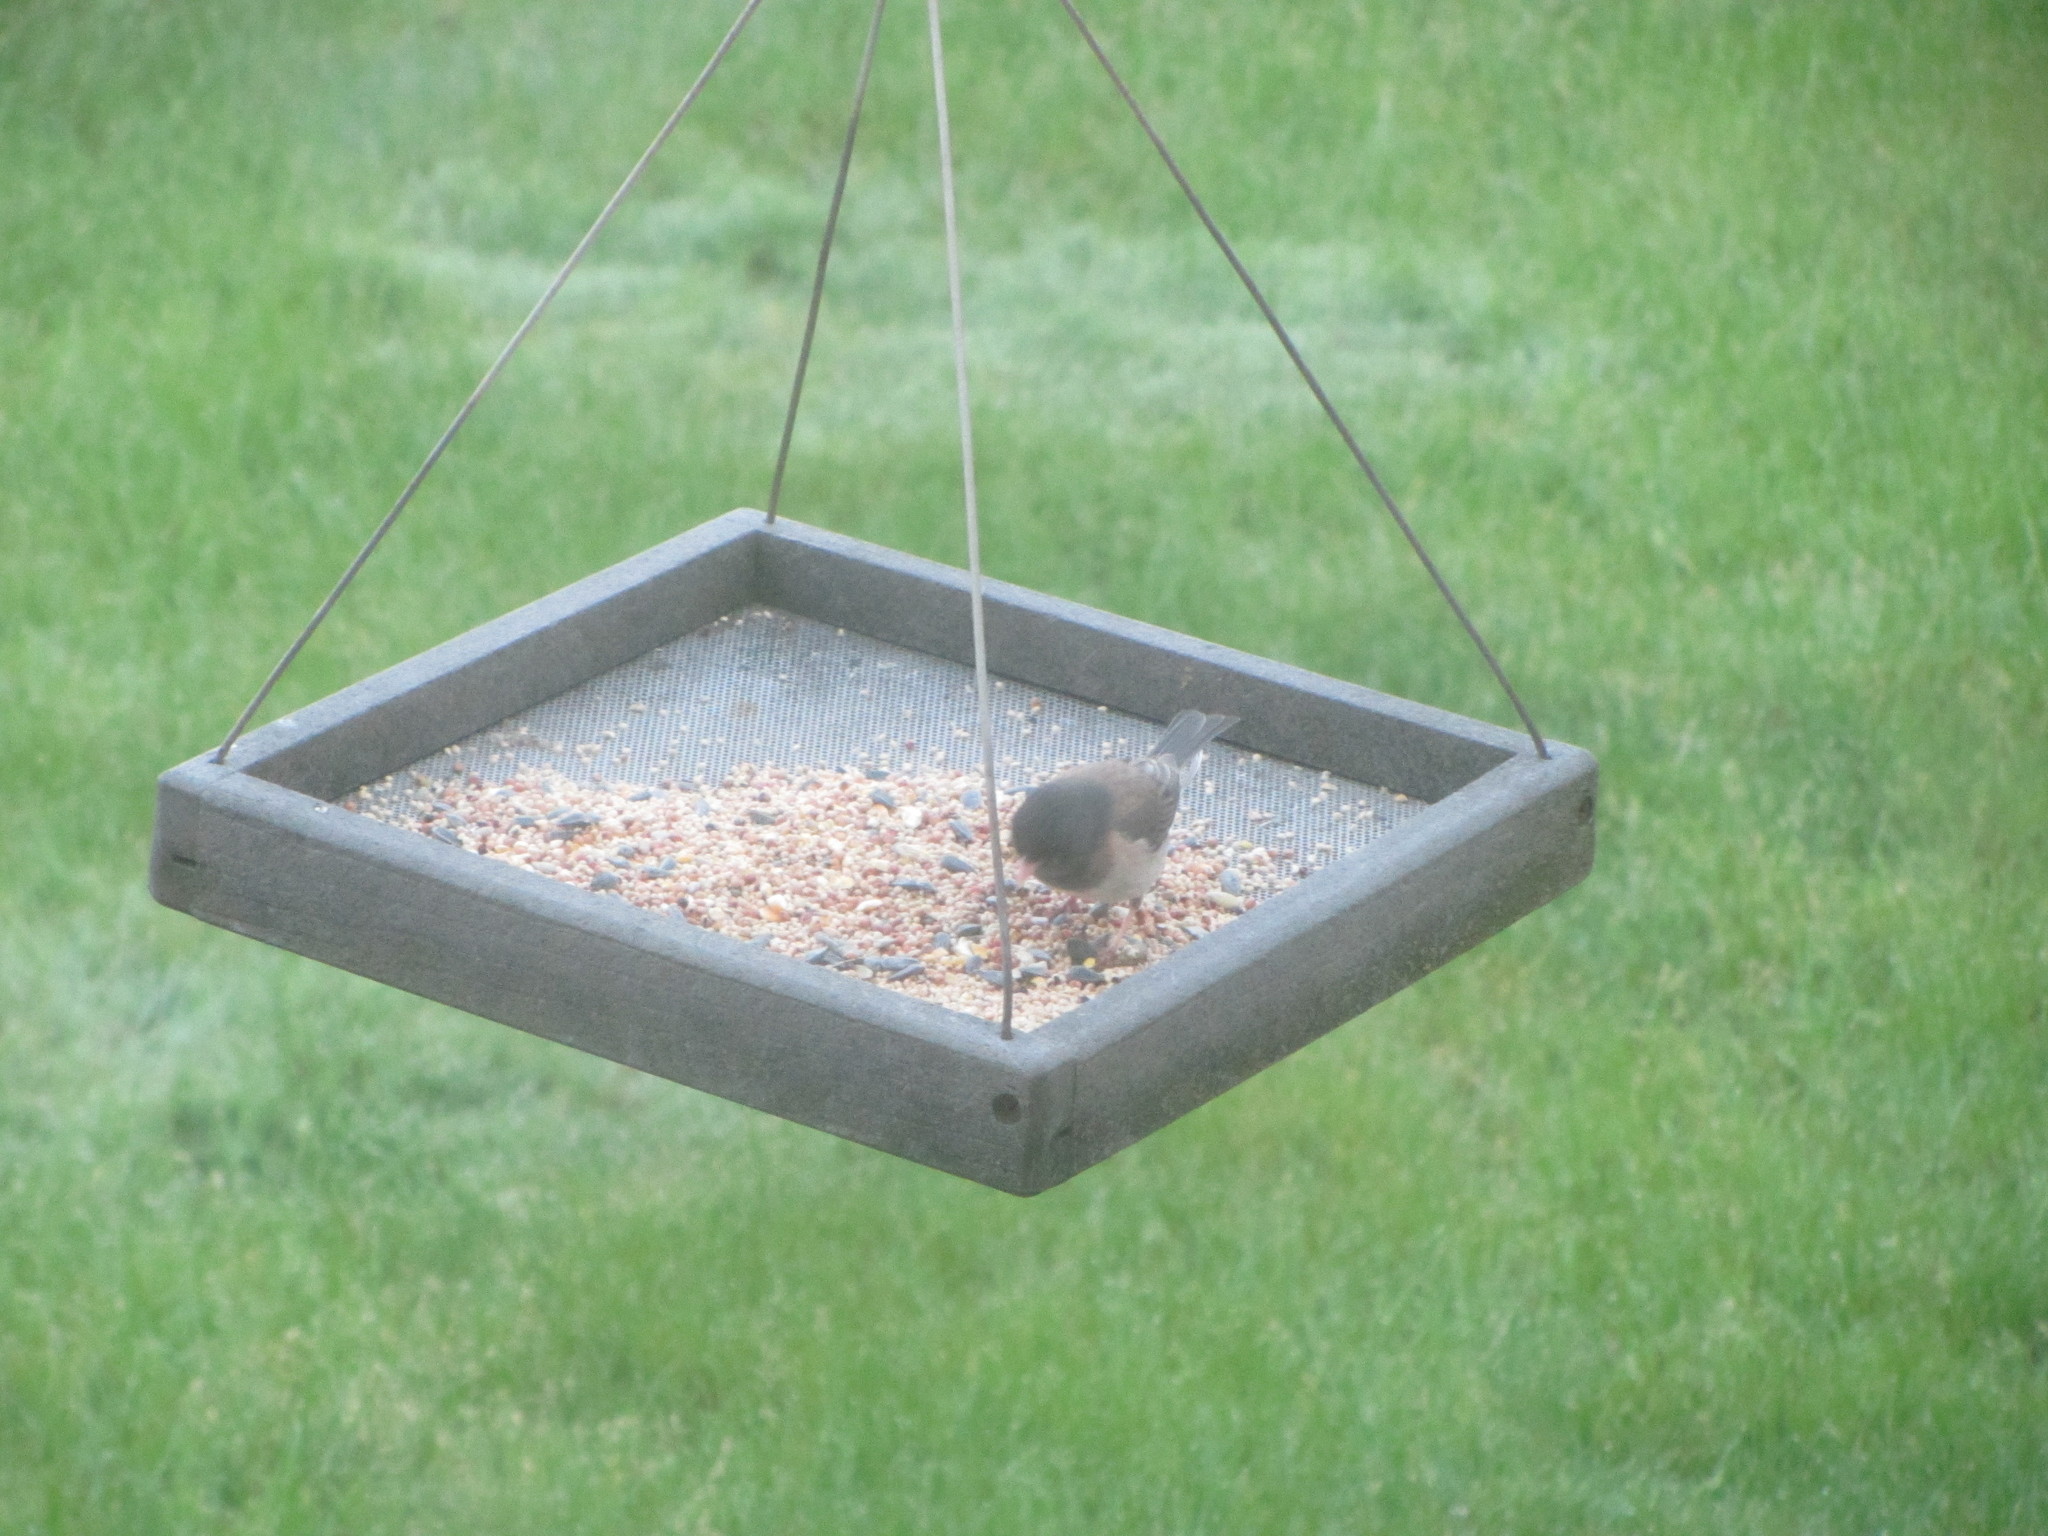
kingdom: Animalia
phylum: Chordata
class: Aves
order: Passeriformes
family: Passerellidae
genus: Junco
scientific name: Junco hyemalis
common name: Dark-eyed junco
